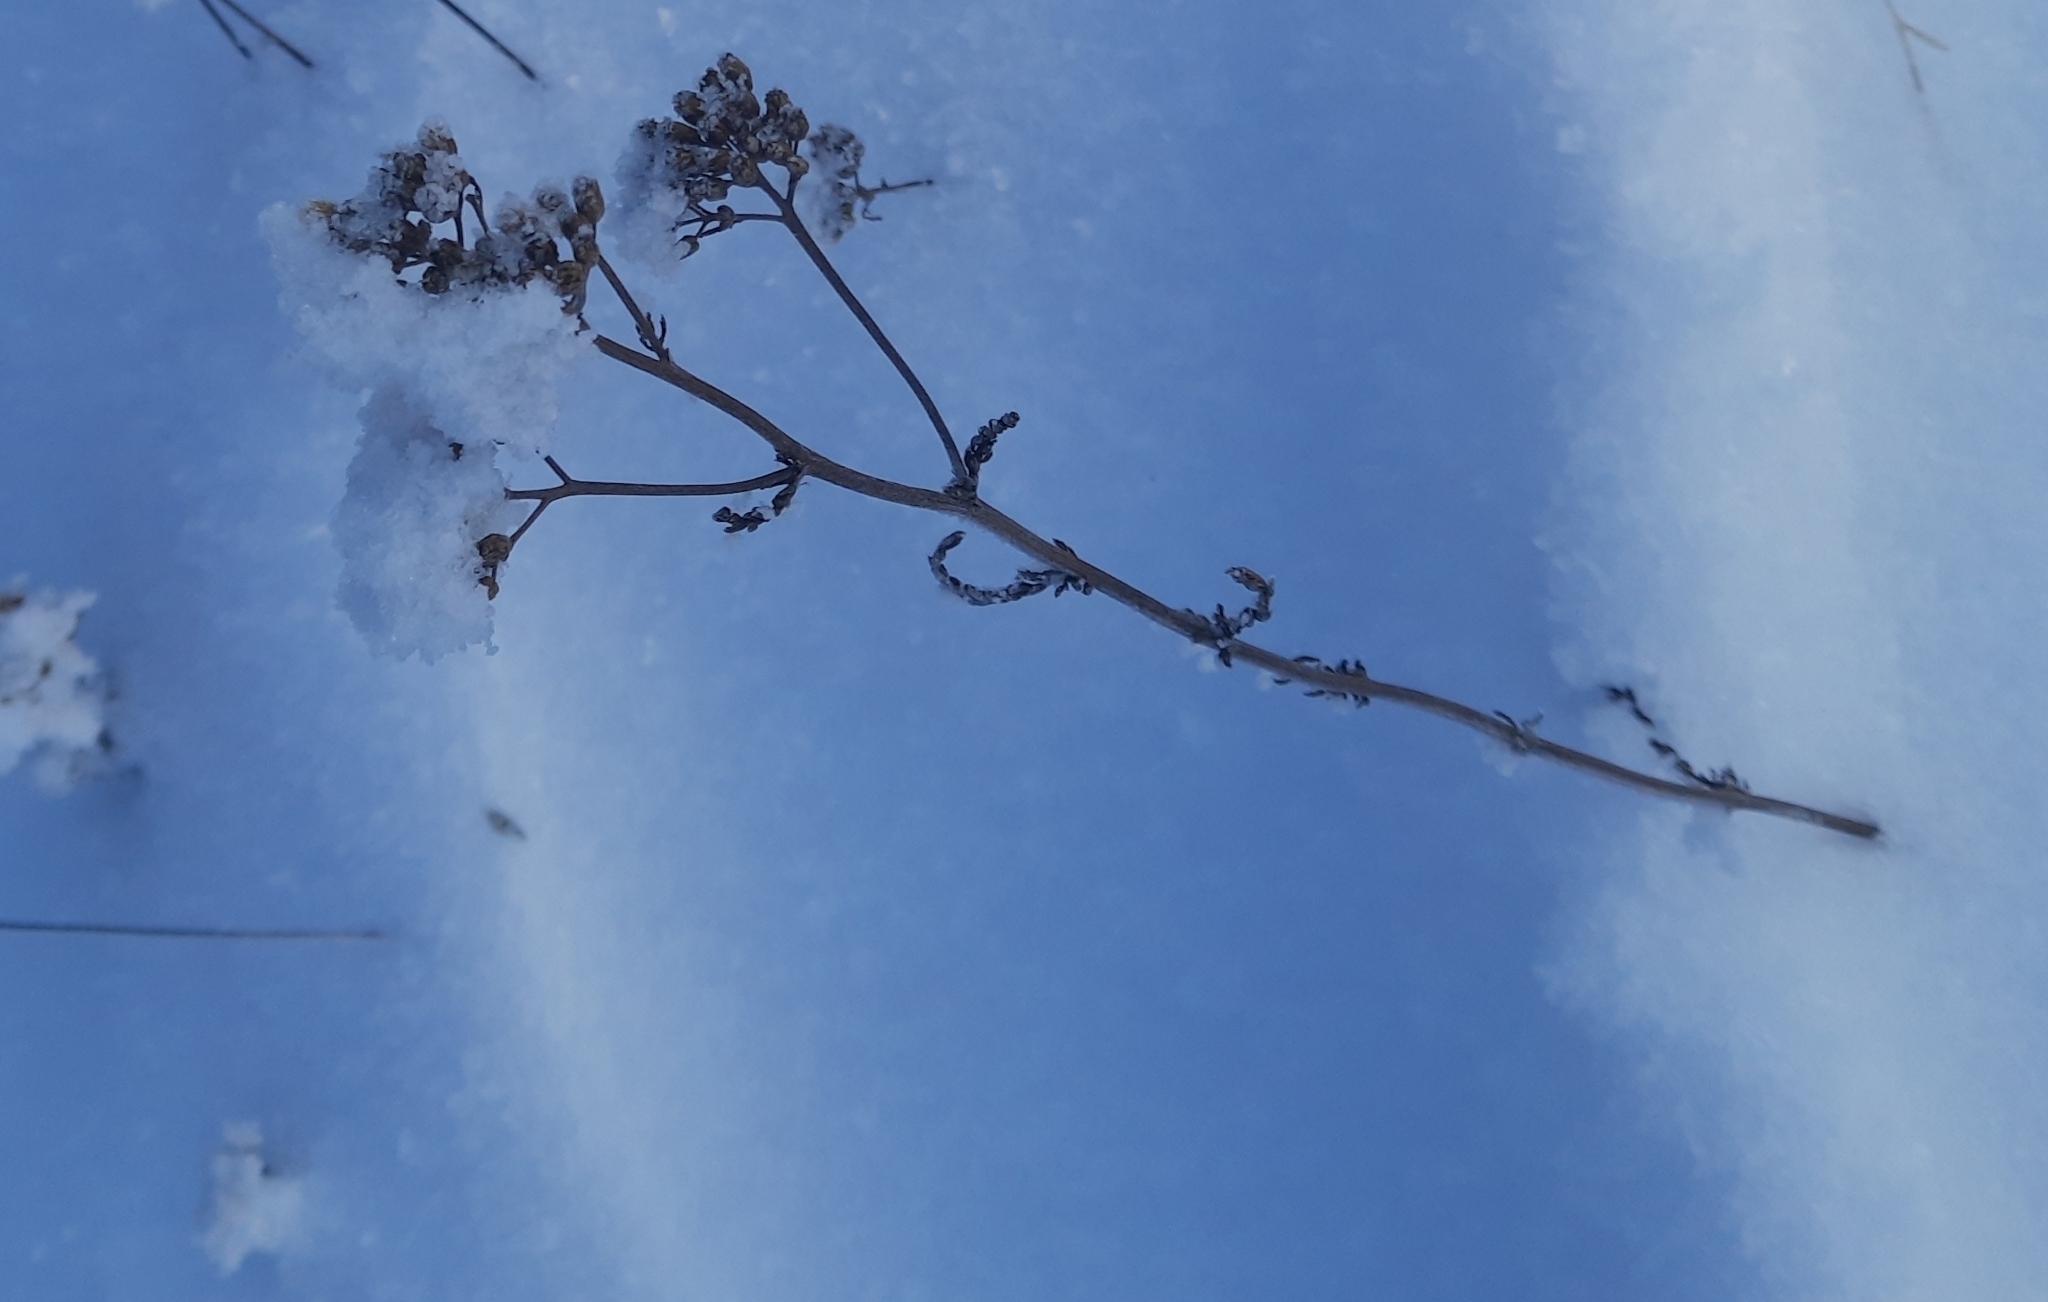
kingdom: Plantae
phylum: Tracheophyta
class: Magnoliopsida
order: Asterales
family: Asteraceae
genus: Achillea
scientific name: Achillea millefolium
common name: Yarrow
